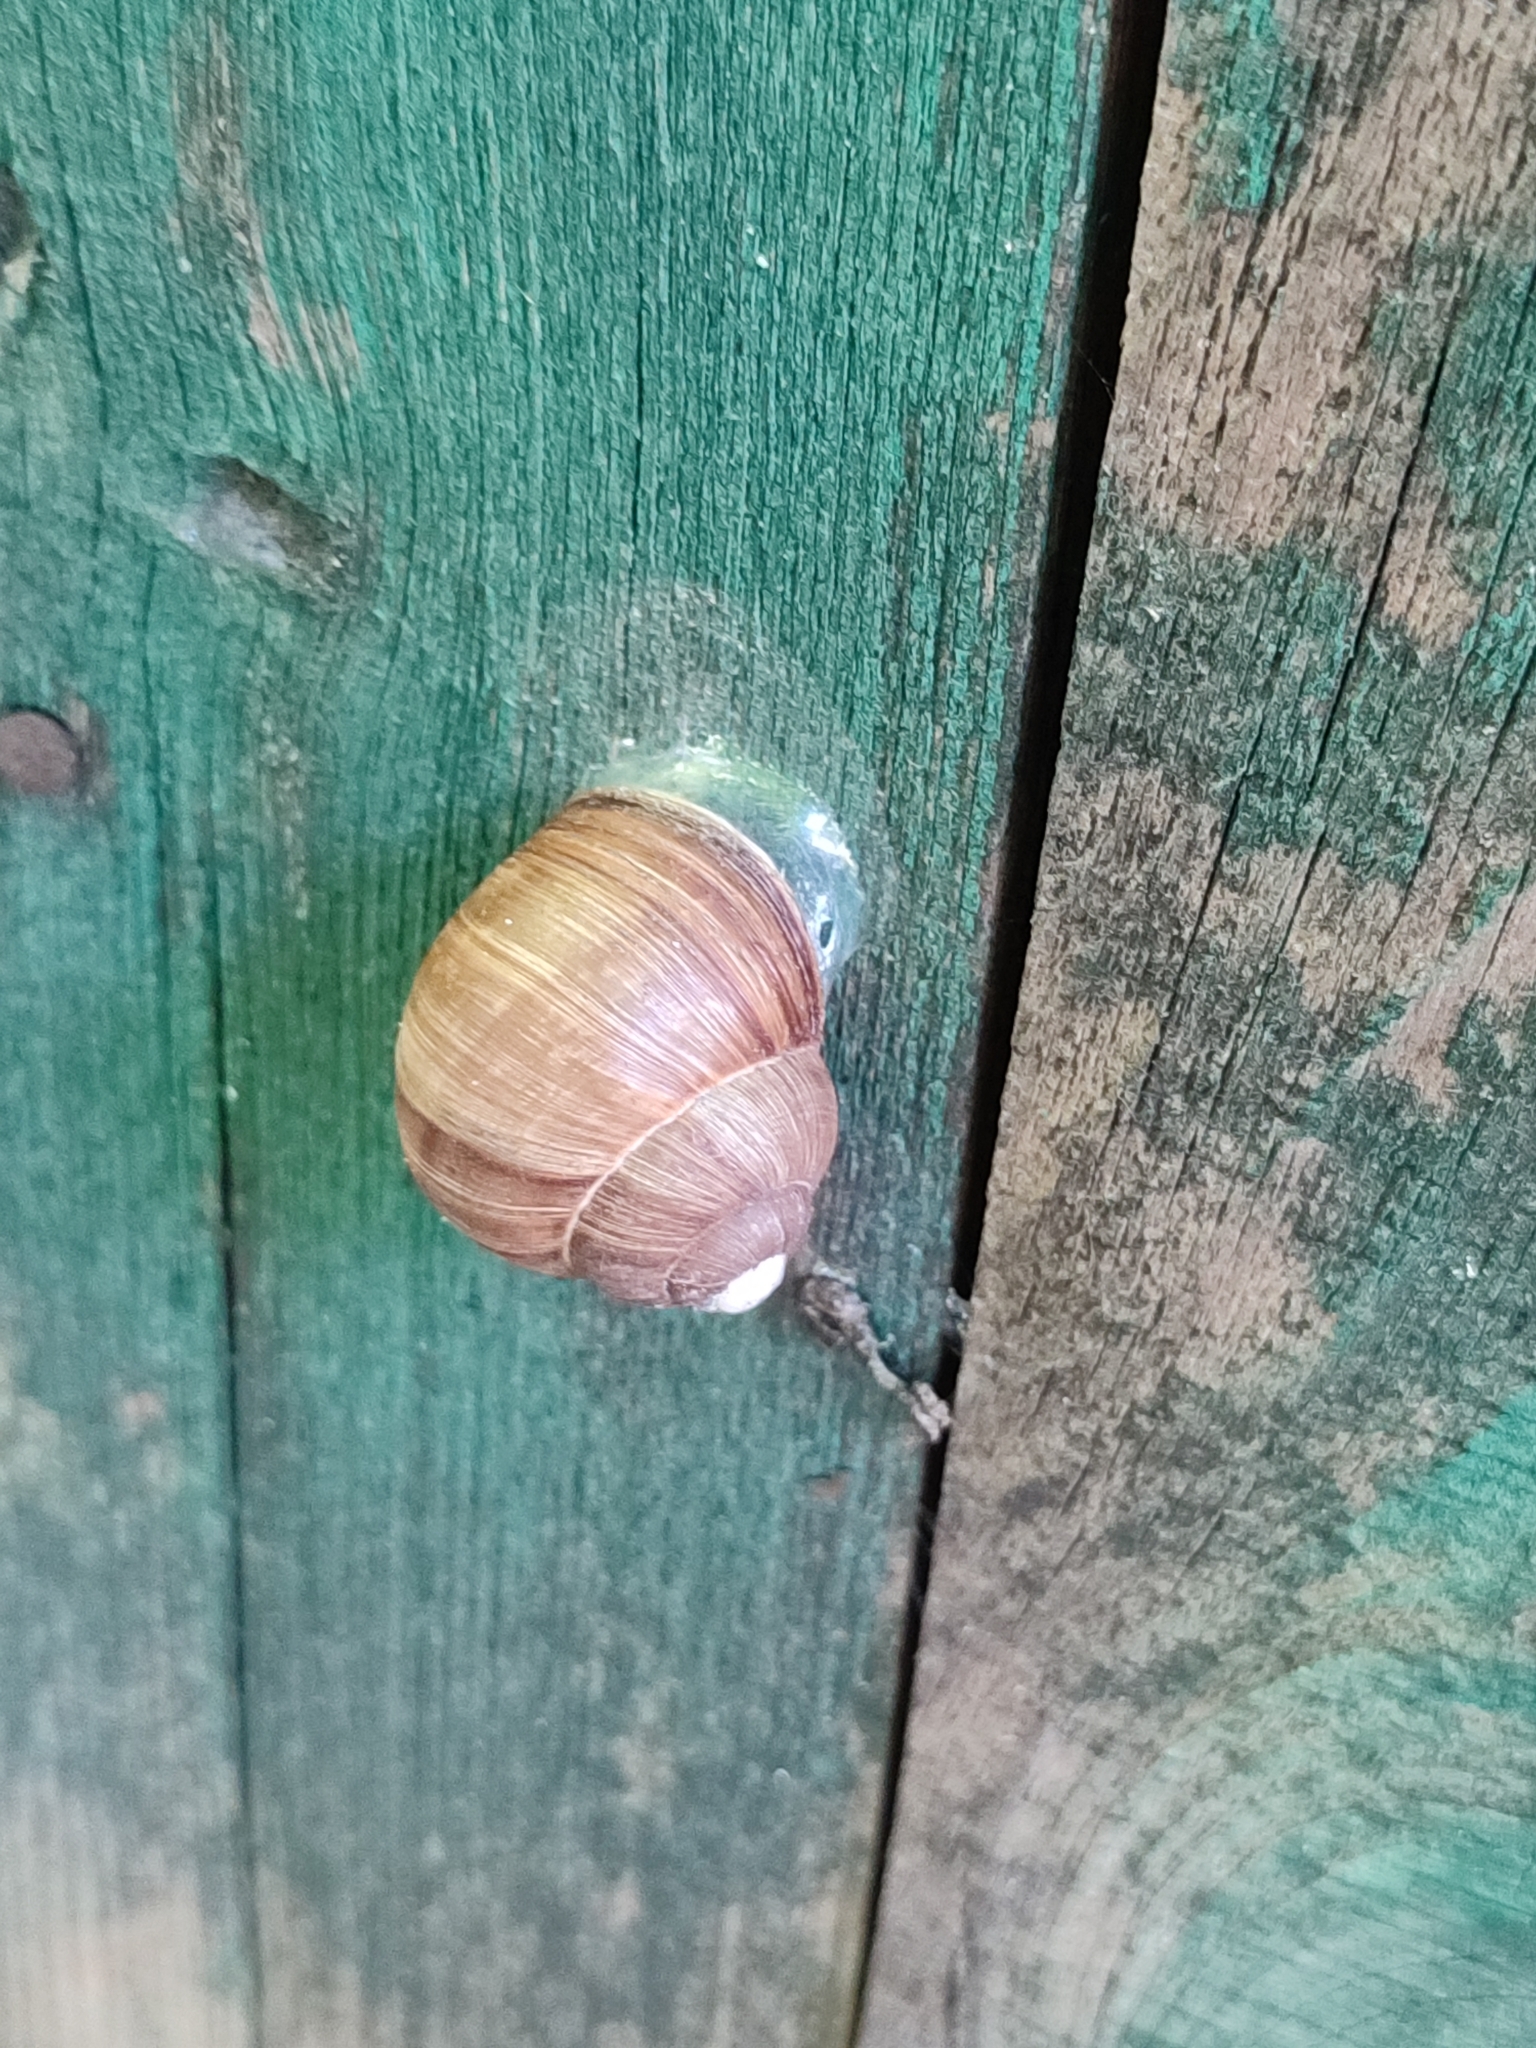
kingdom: Animalia
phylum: Mollusca
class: Gastropoda
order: Stylommatophora
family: Helicidae
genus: Helix
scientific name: Helix pomatia
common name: Roman snail
